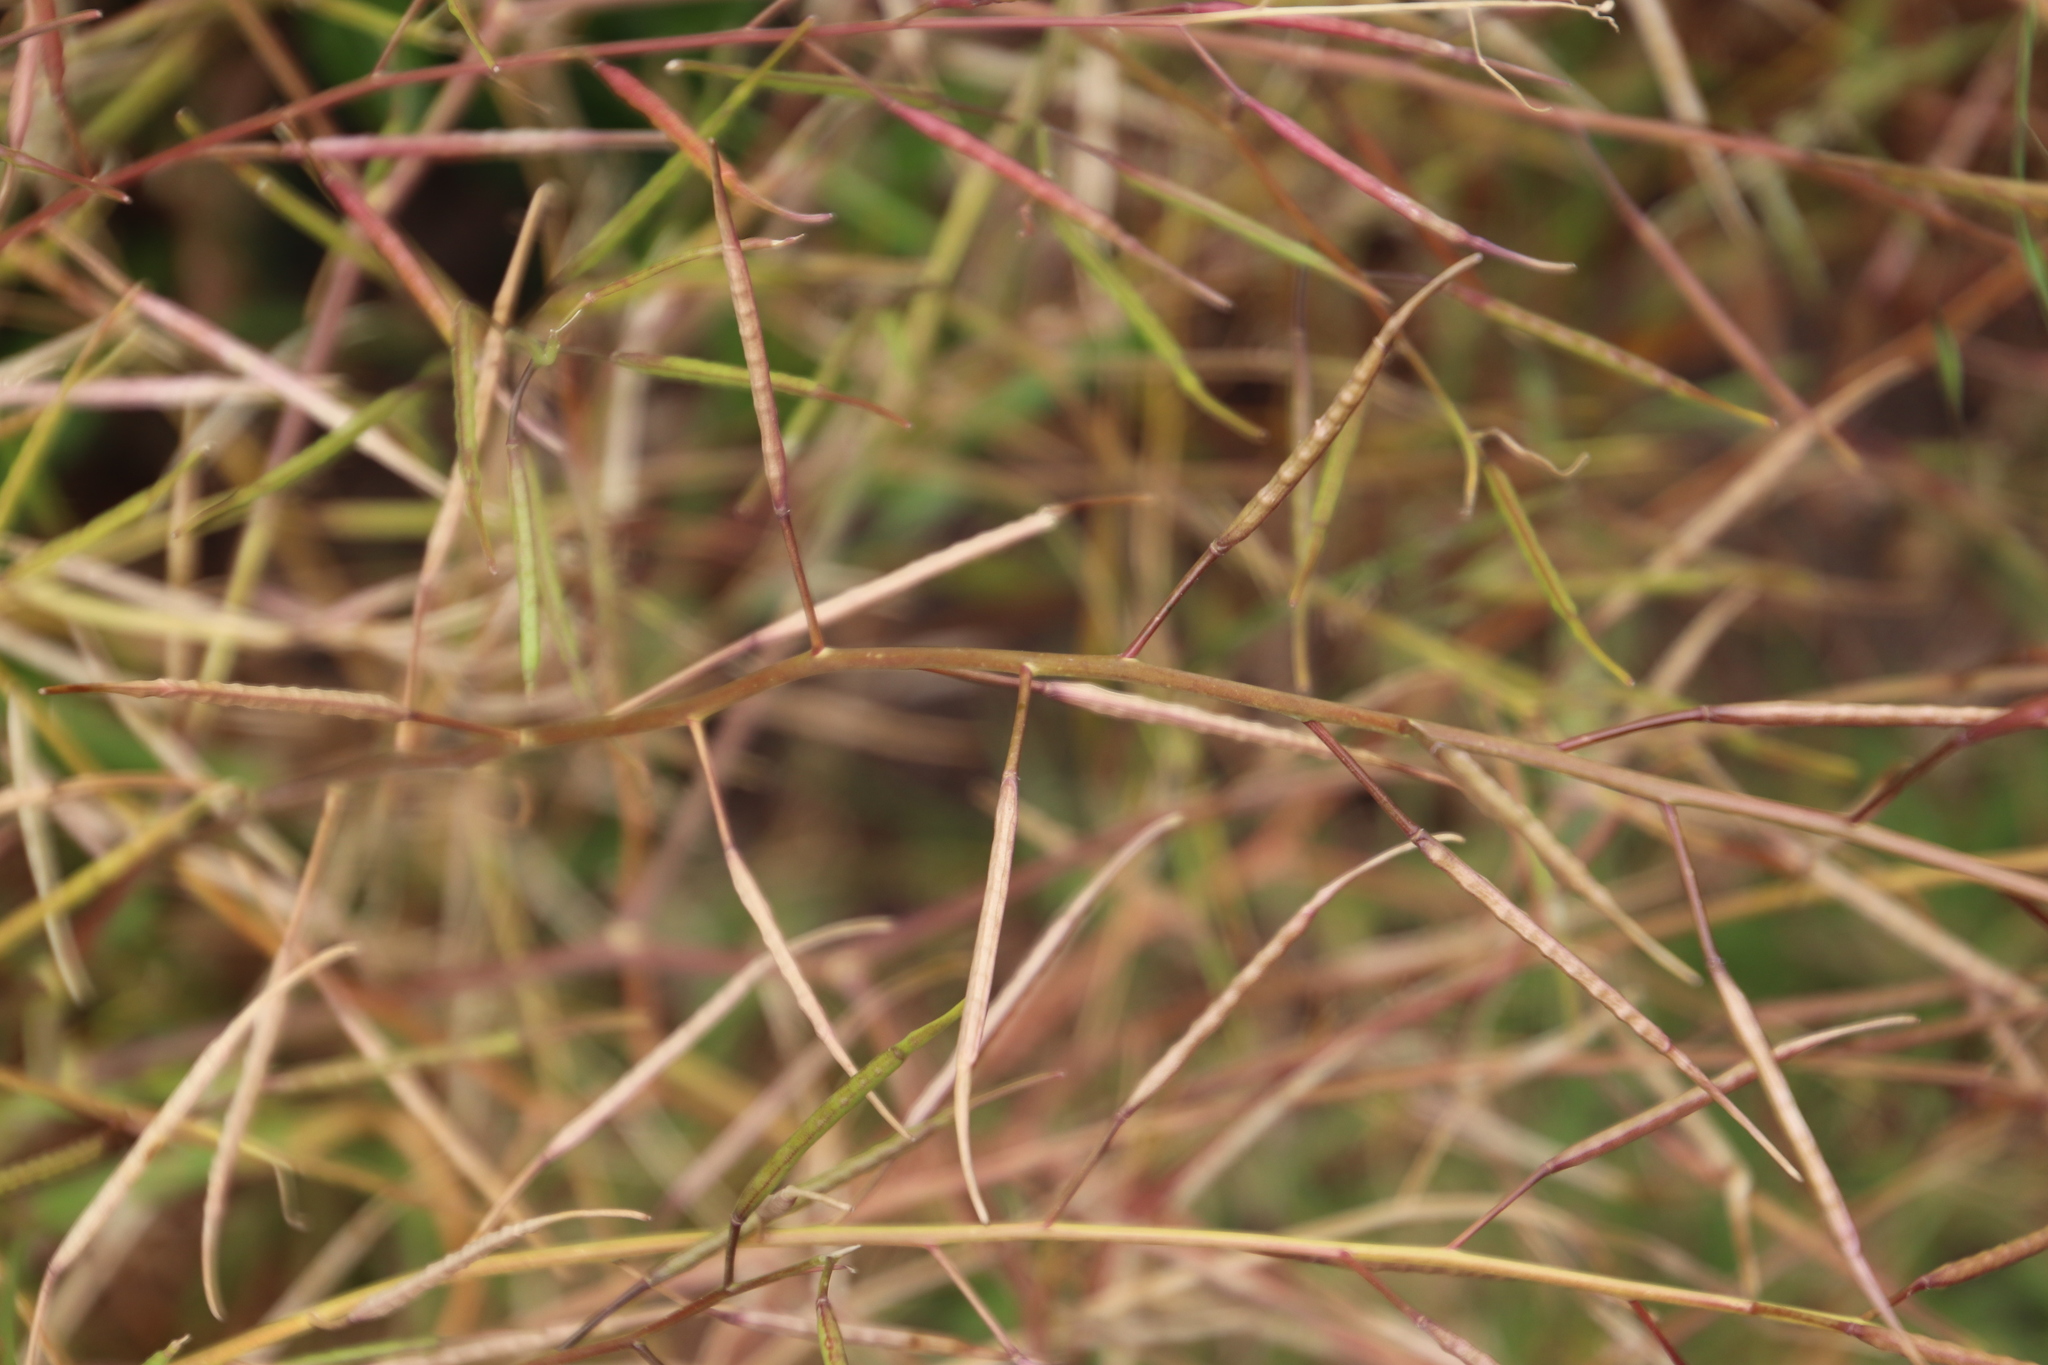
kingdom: Plantae
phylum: Tracheophyta
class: Magnoliopsida
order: Brassicales
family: Brassicaceae
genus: Brassica
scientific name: Brassica tournefortii
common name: Pale cabbage
